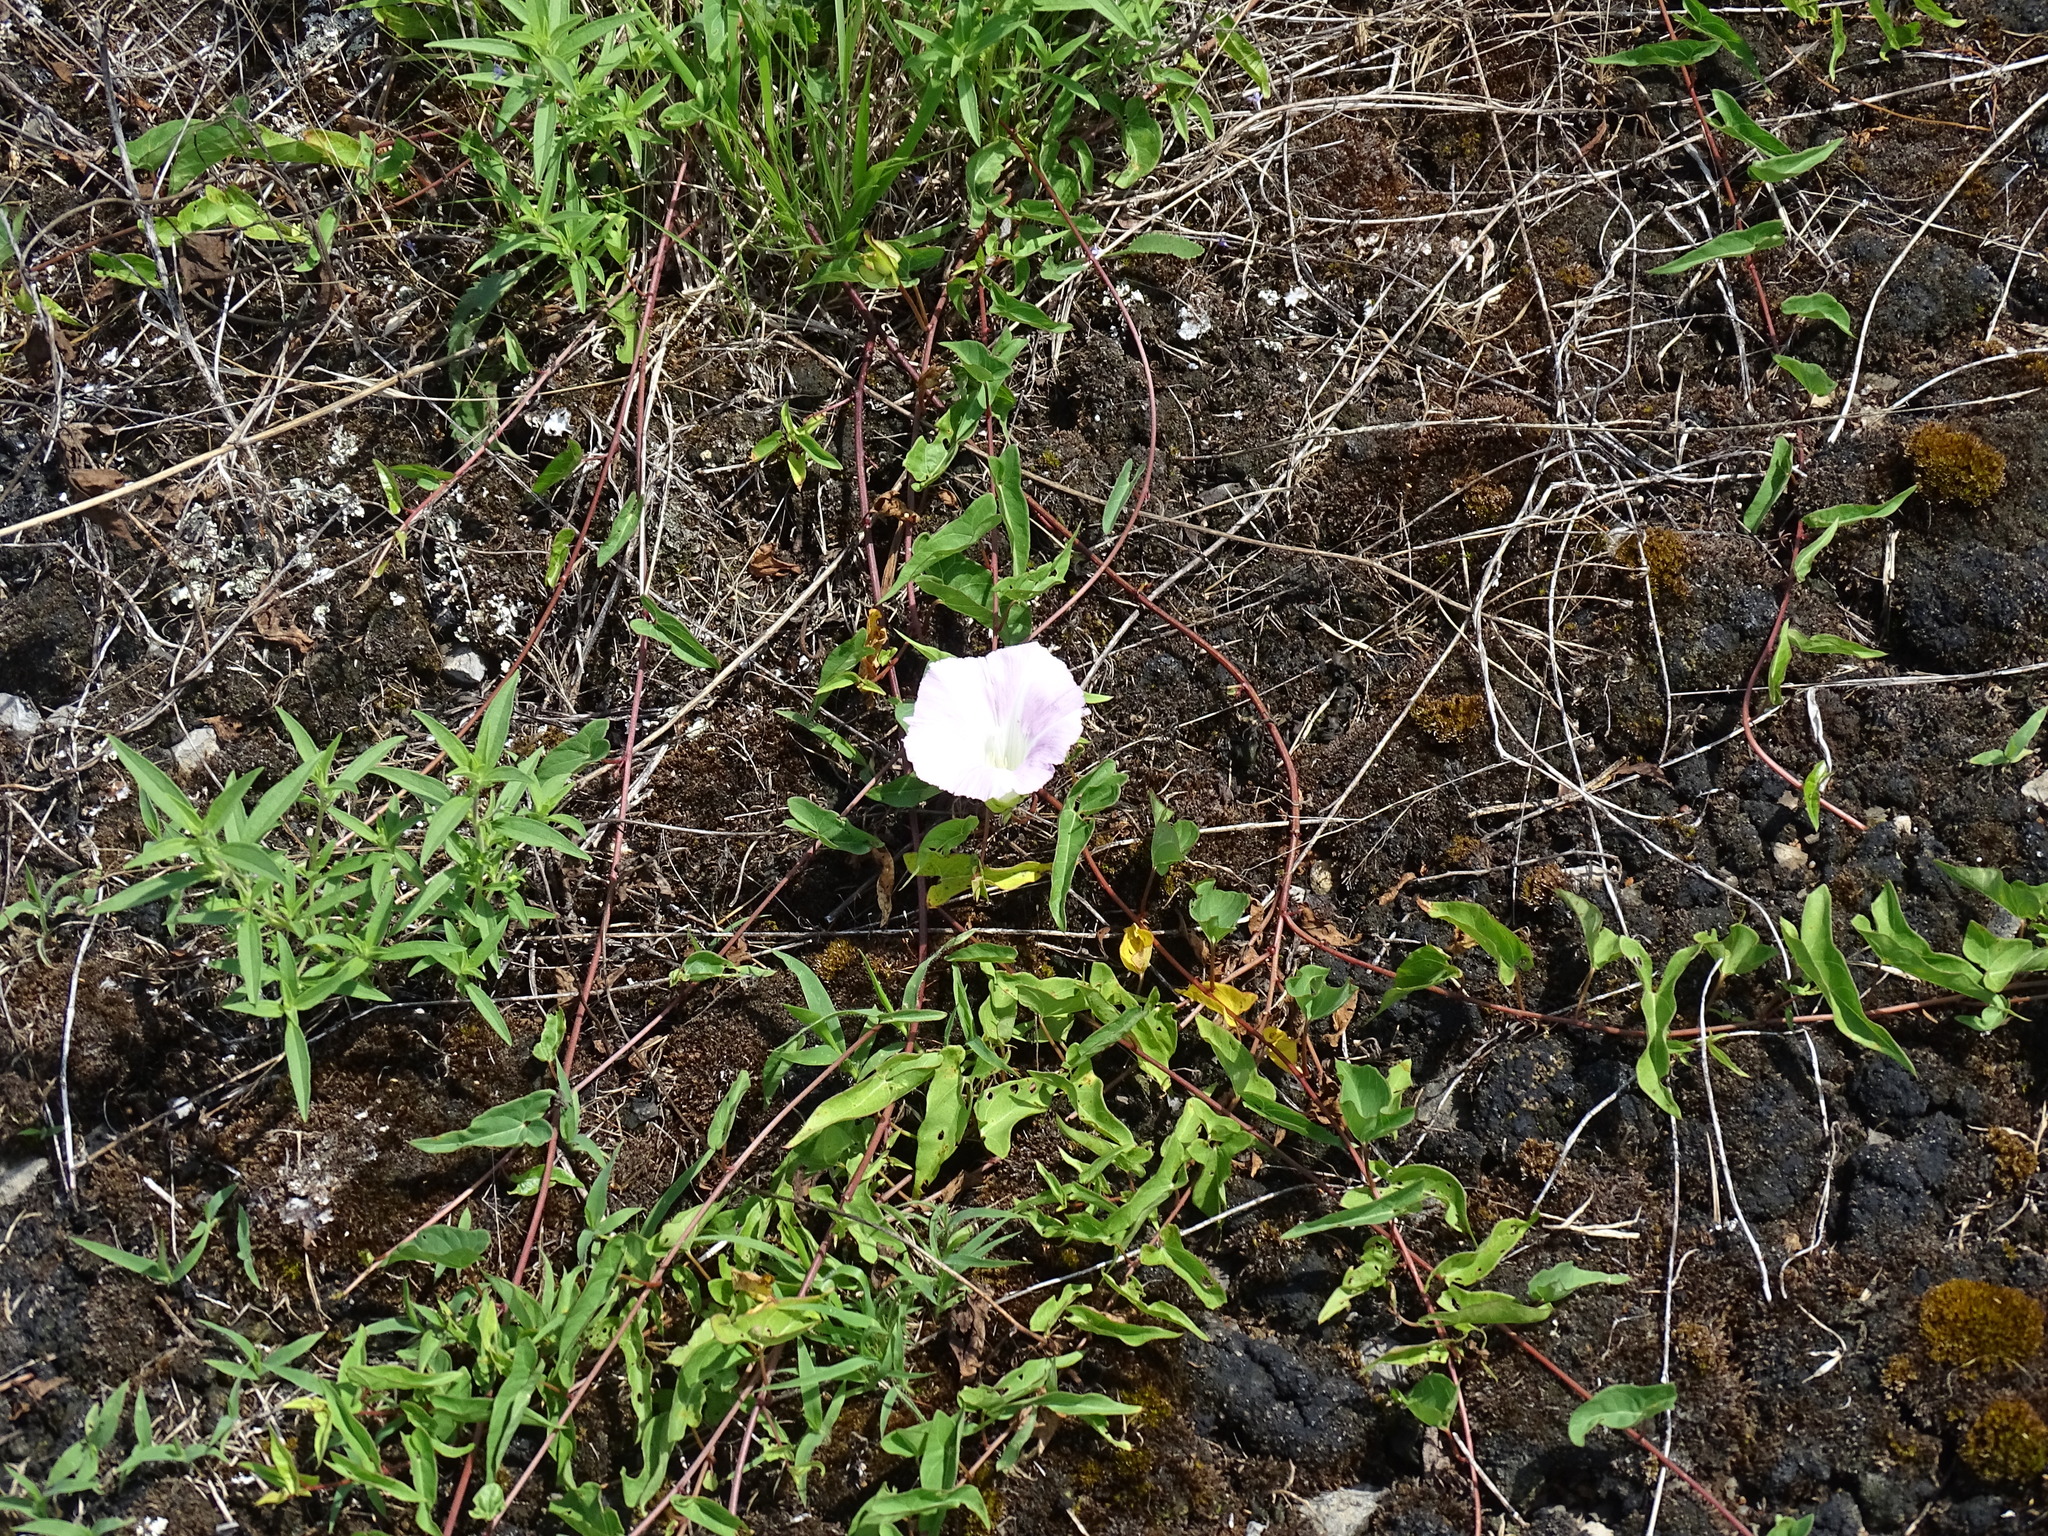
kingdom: Plantae
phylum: Tracheophyta
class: Magnoliopsida
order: Solanales
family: Convolvulaceae
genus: Calystegia
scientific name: Calystegia sepium
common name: Hedge bindweed
